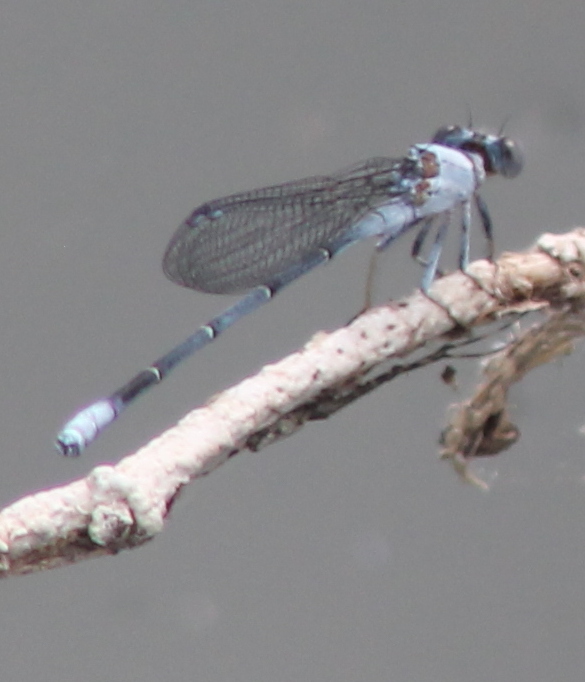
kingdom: Animalia
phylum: Arthropoda
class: Insecta
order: Odonata
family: Coenagrionidae
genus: Argia
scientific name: Argia moesta
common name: Powdered dancer
